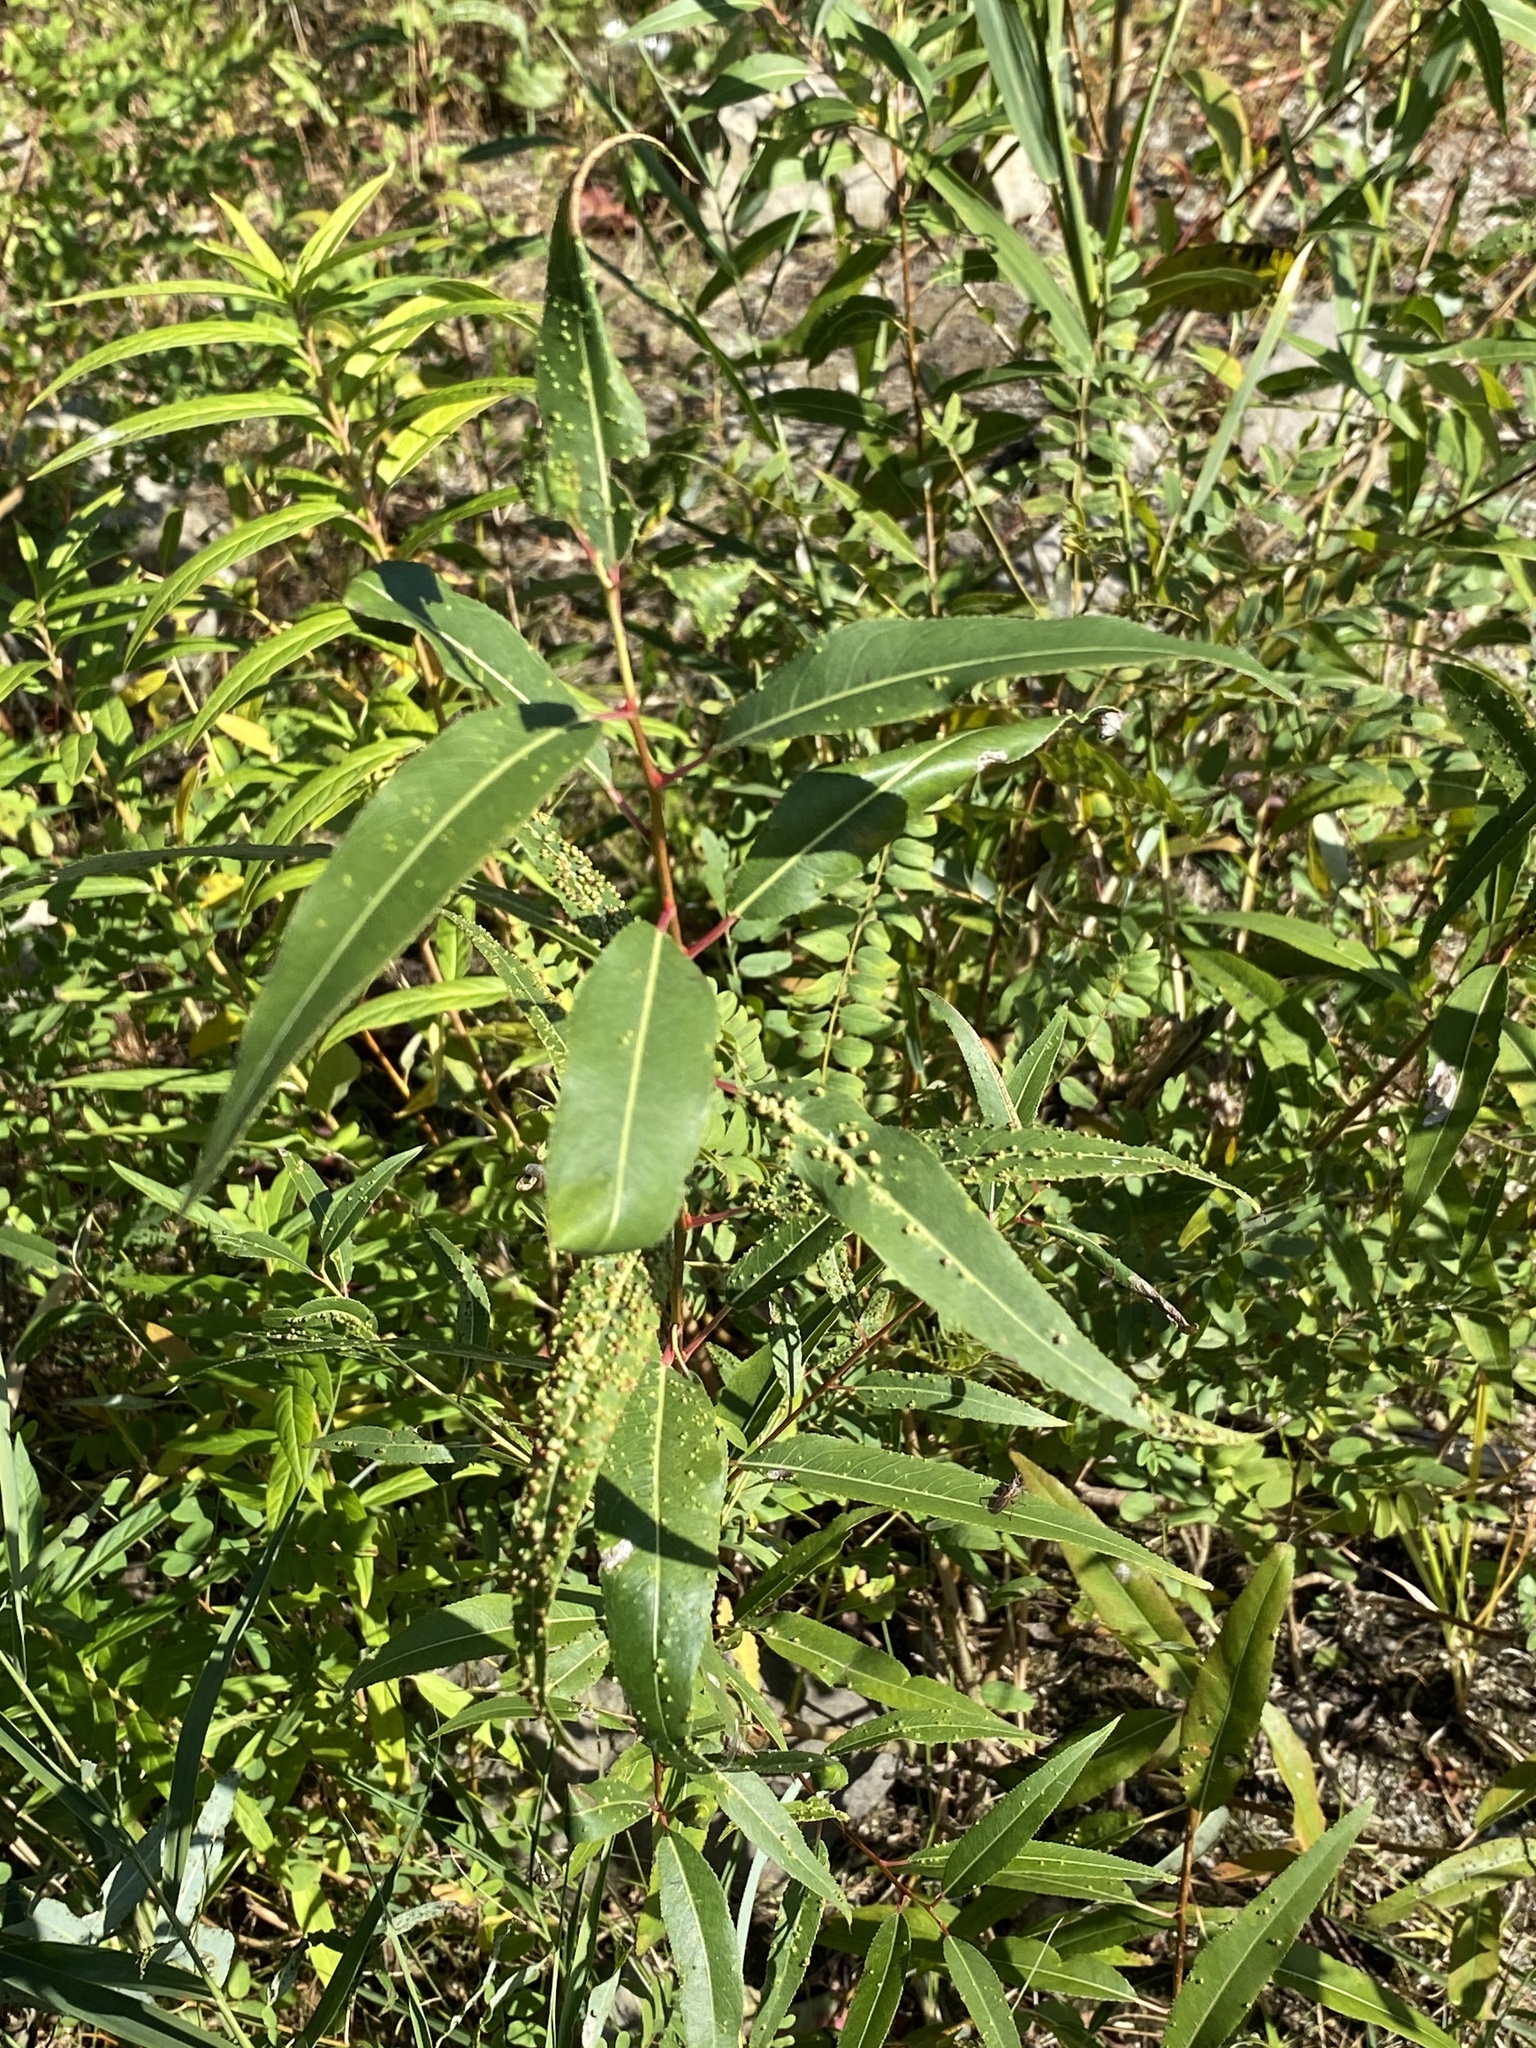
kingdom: Animalia
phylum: Arthropoda
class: Arachnida
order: Trombidiformes
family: Eriophyidae
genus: Aculus
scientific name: Aculus tetanothrix
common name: Willow bead gall mite
